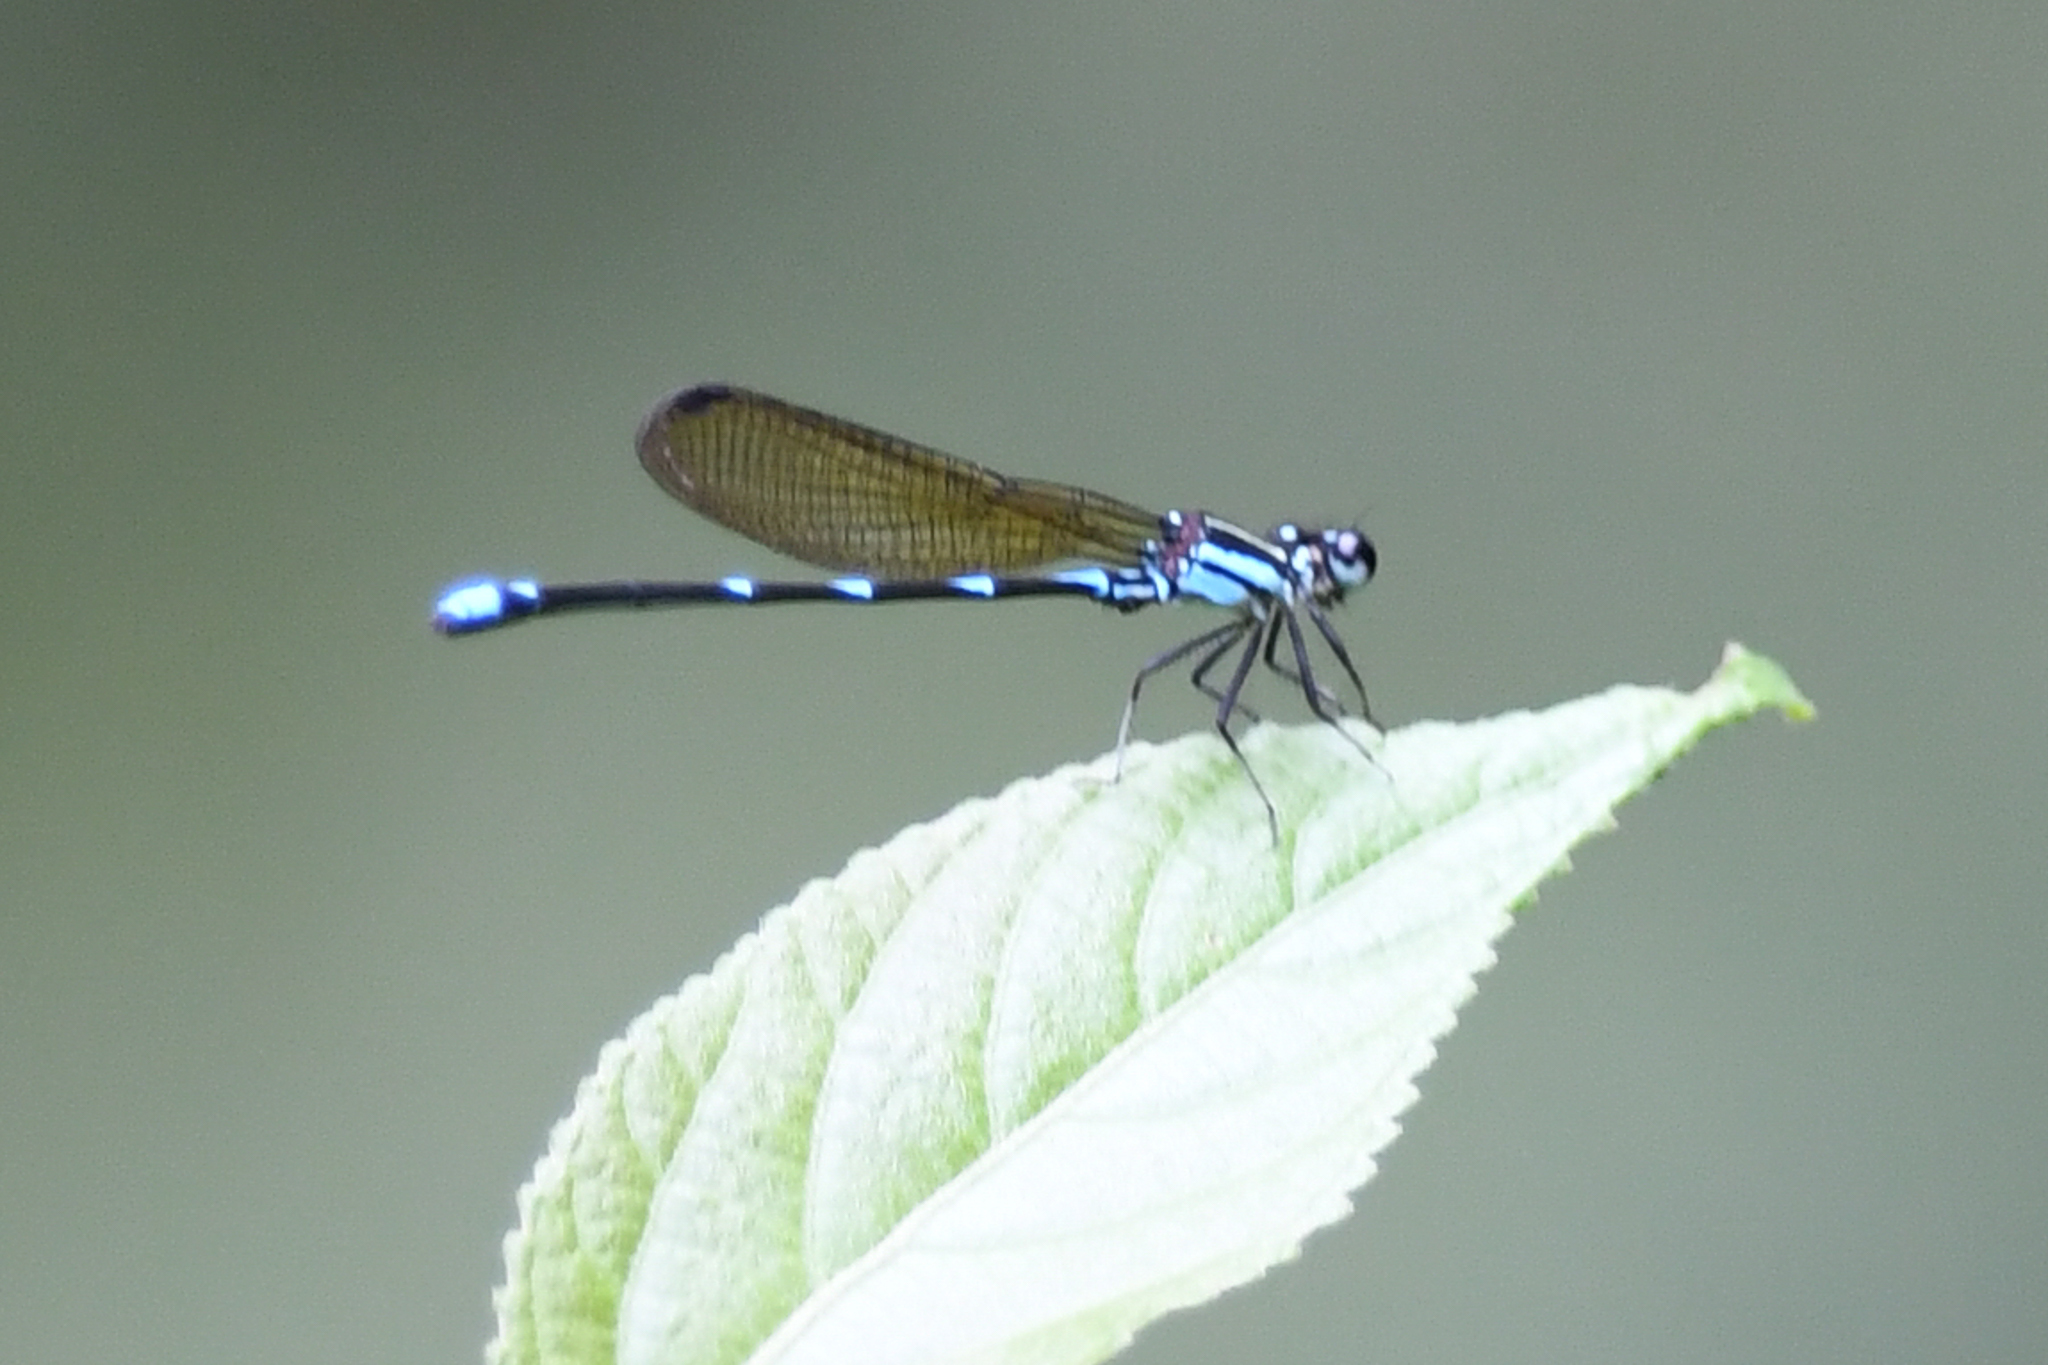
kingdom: Animalia
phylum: Arthropoda
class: Insecta
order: Odonata
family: Coenagrionidae
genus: Argia
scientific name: Argia adamsi
